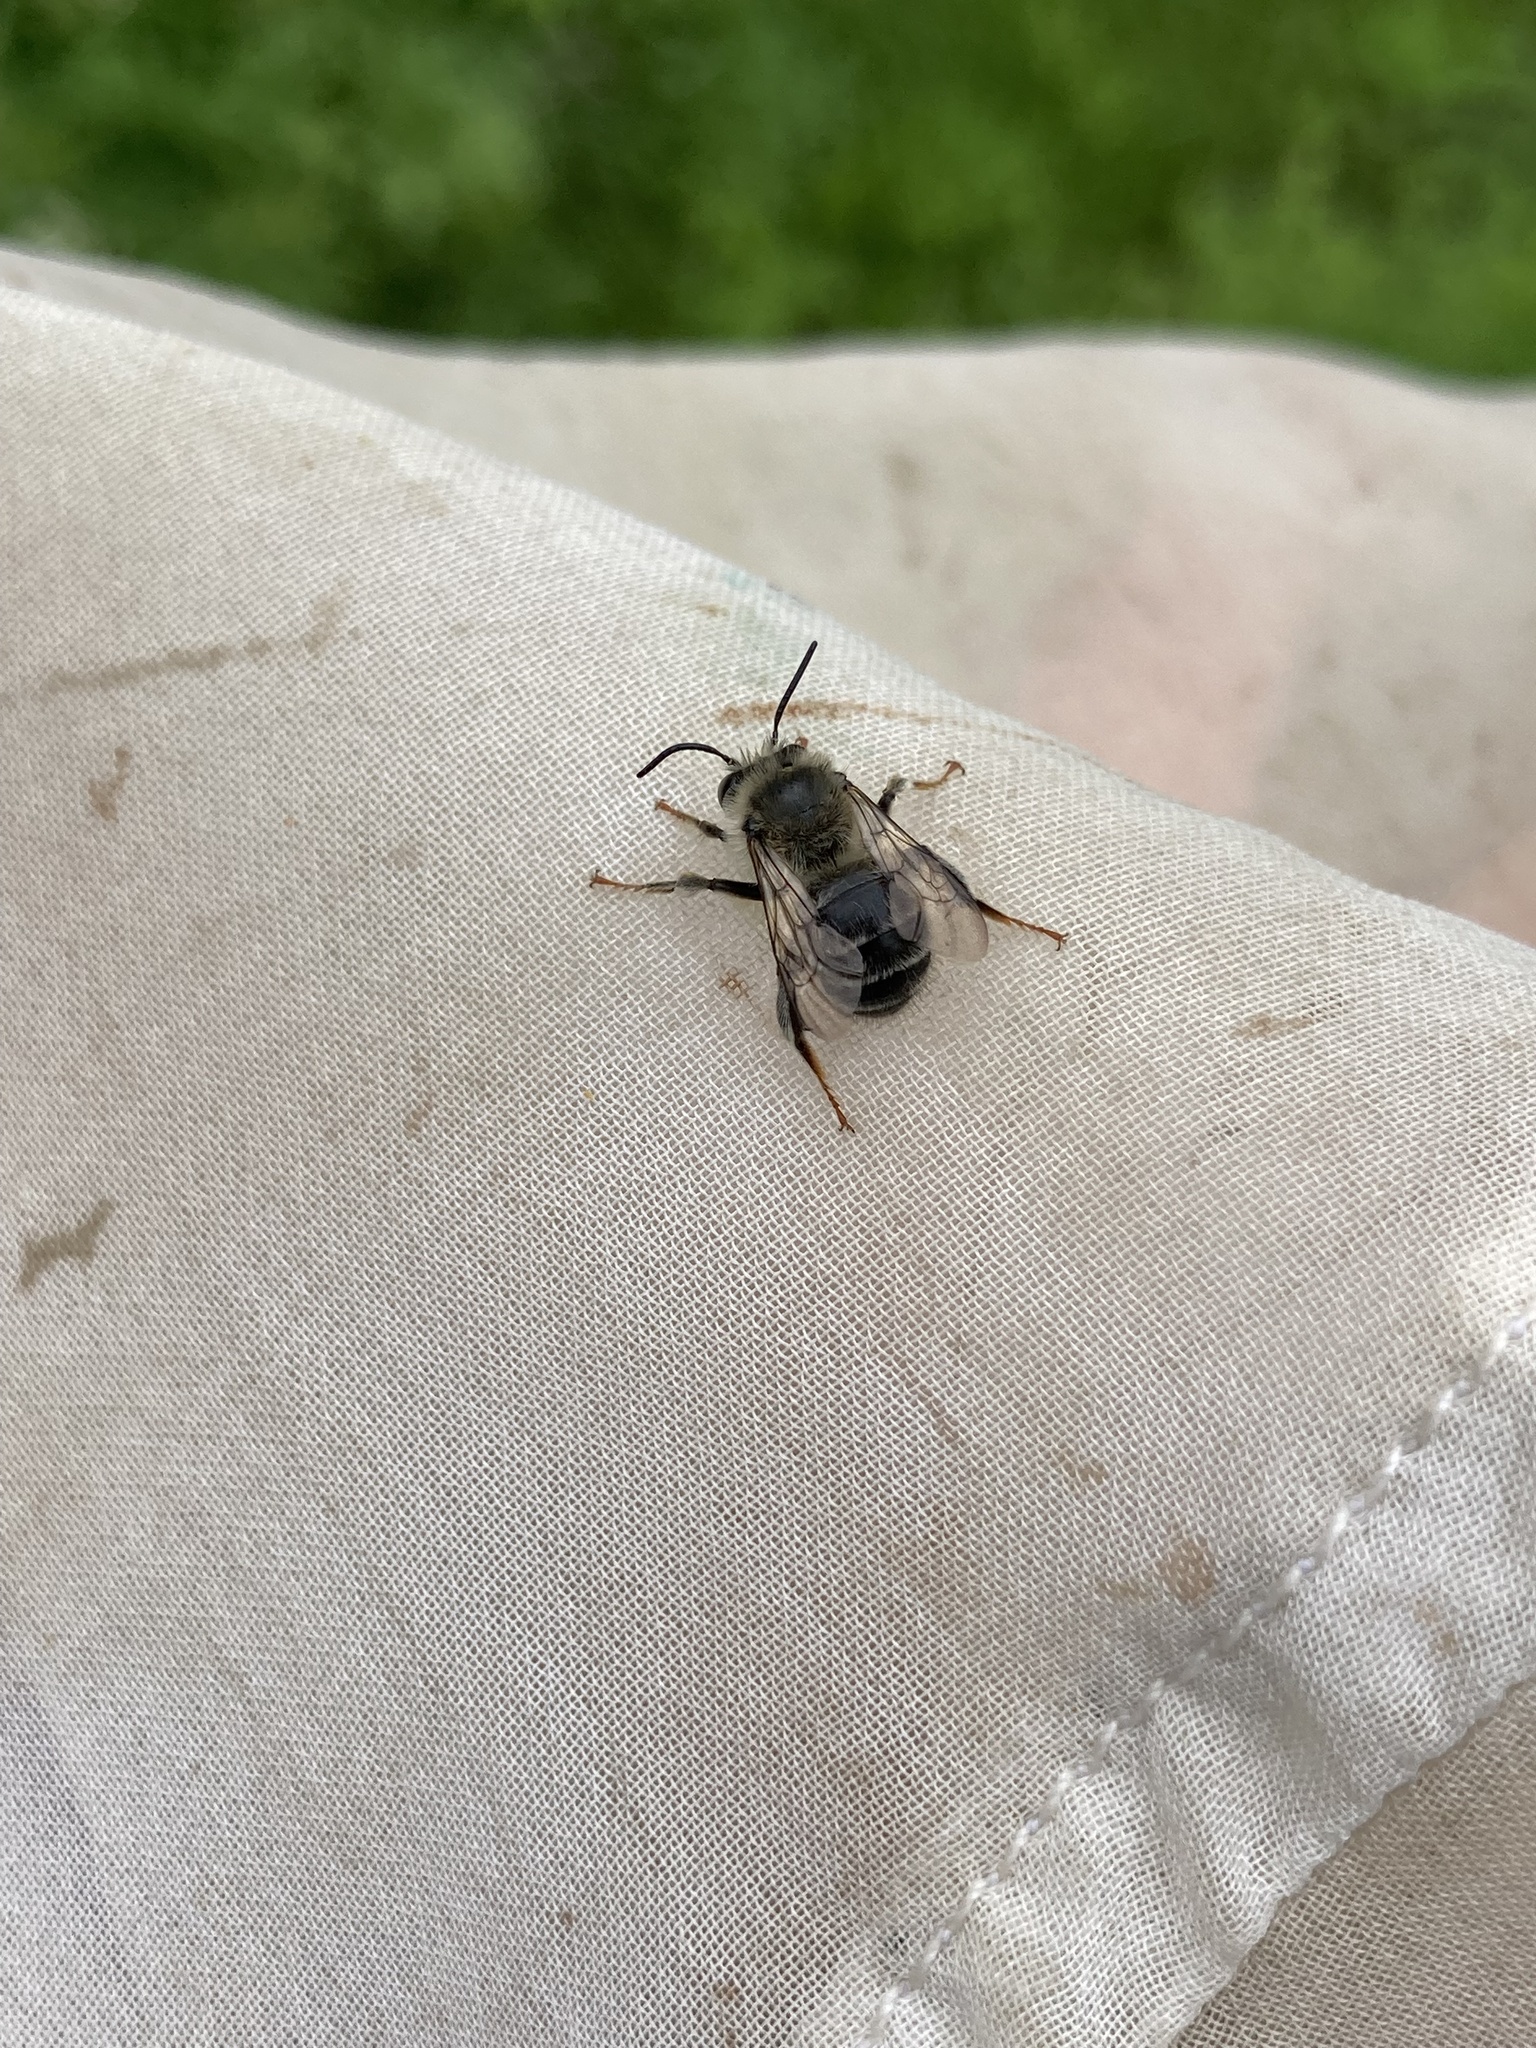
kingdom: Animalia
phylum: Arthropoda
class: Insecta
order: Hymenoptera
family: Apidae
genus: Anthophora
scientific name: Anthophora terminalis
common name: Orange-tipped wood-digger bee
